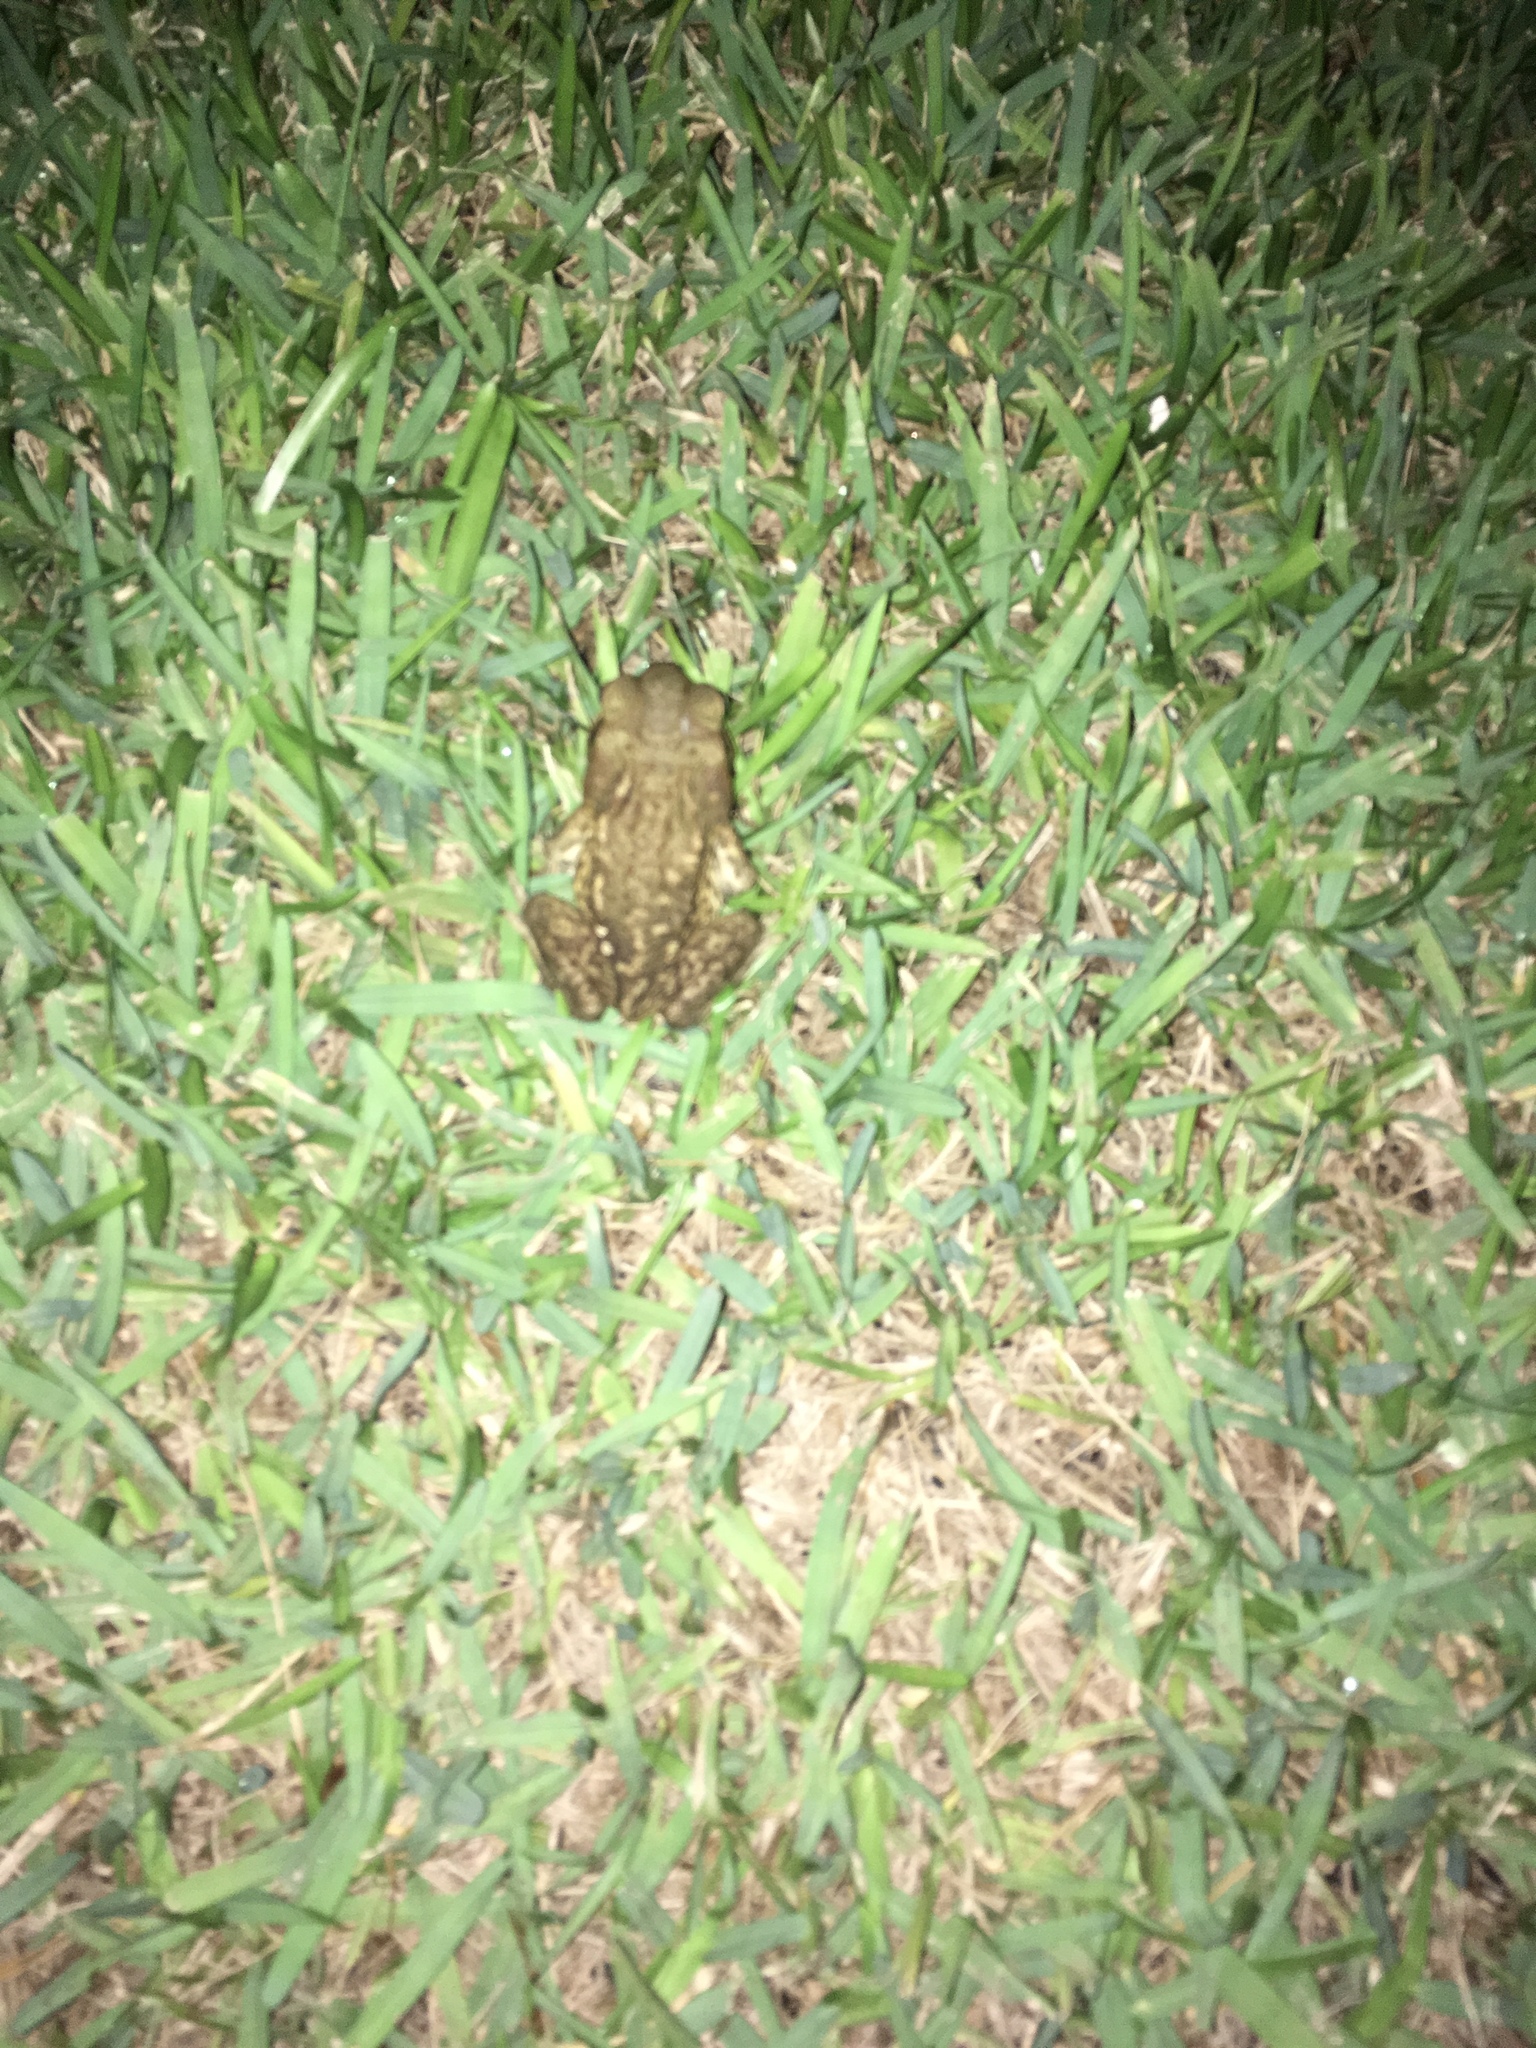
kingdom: Animalia
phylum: Chordata
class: Amphibia
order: Anura
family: Bufonidae
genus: Rhinella
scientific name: Rhinella marina
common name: Cane toad
